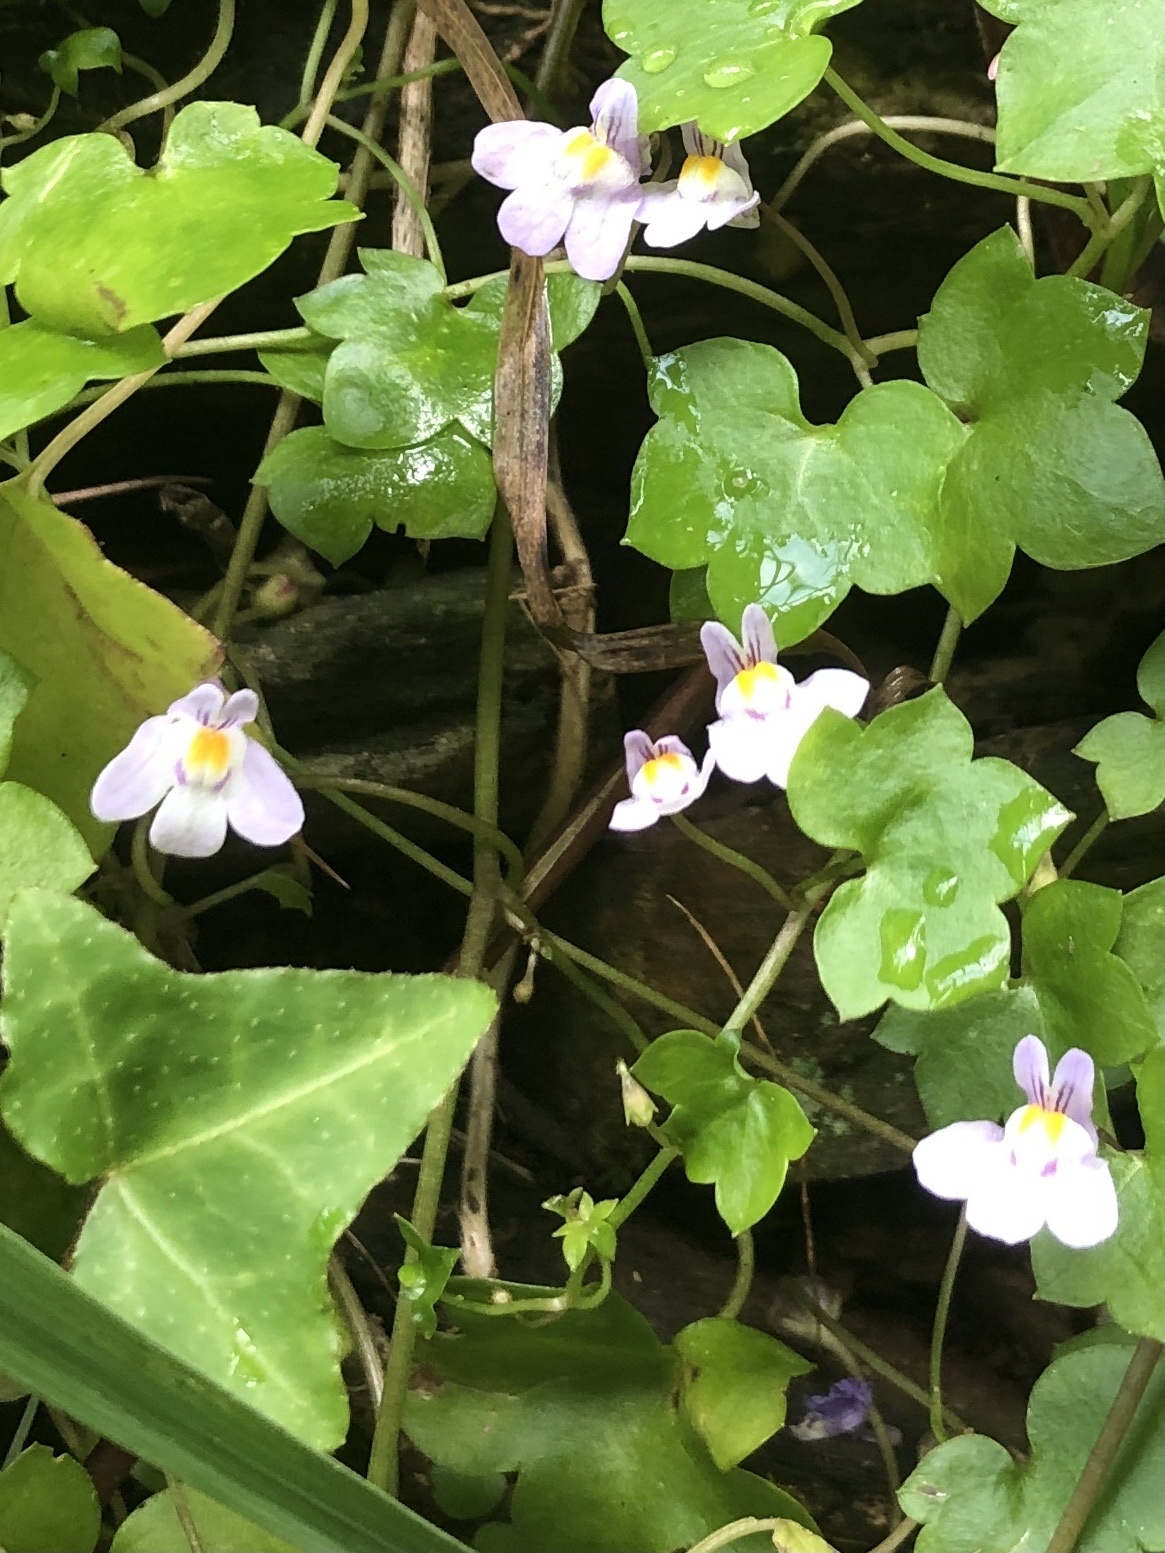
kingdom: Plantae
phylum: Tracheophyta
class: Magnoliopsida
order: Lamiales
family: Plantaginaceae
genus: Cymbalaria
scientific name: Cymbalaria muralis
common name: Ivy-leaved toadflax
